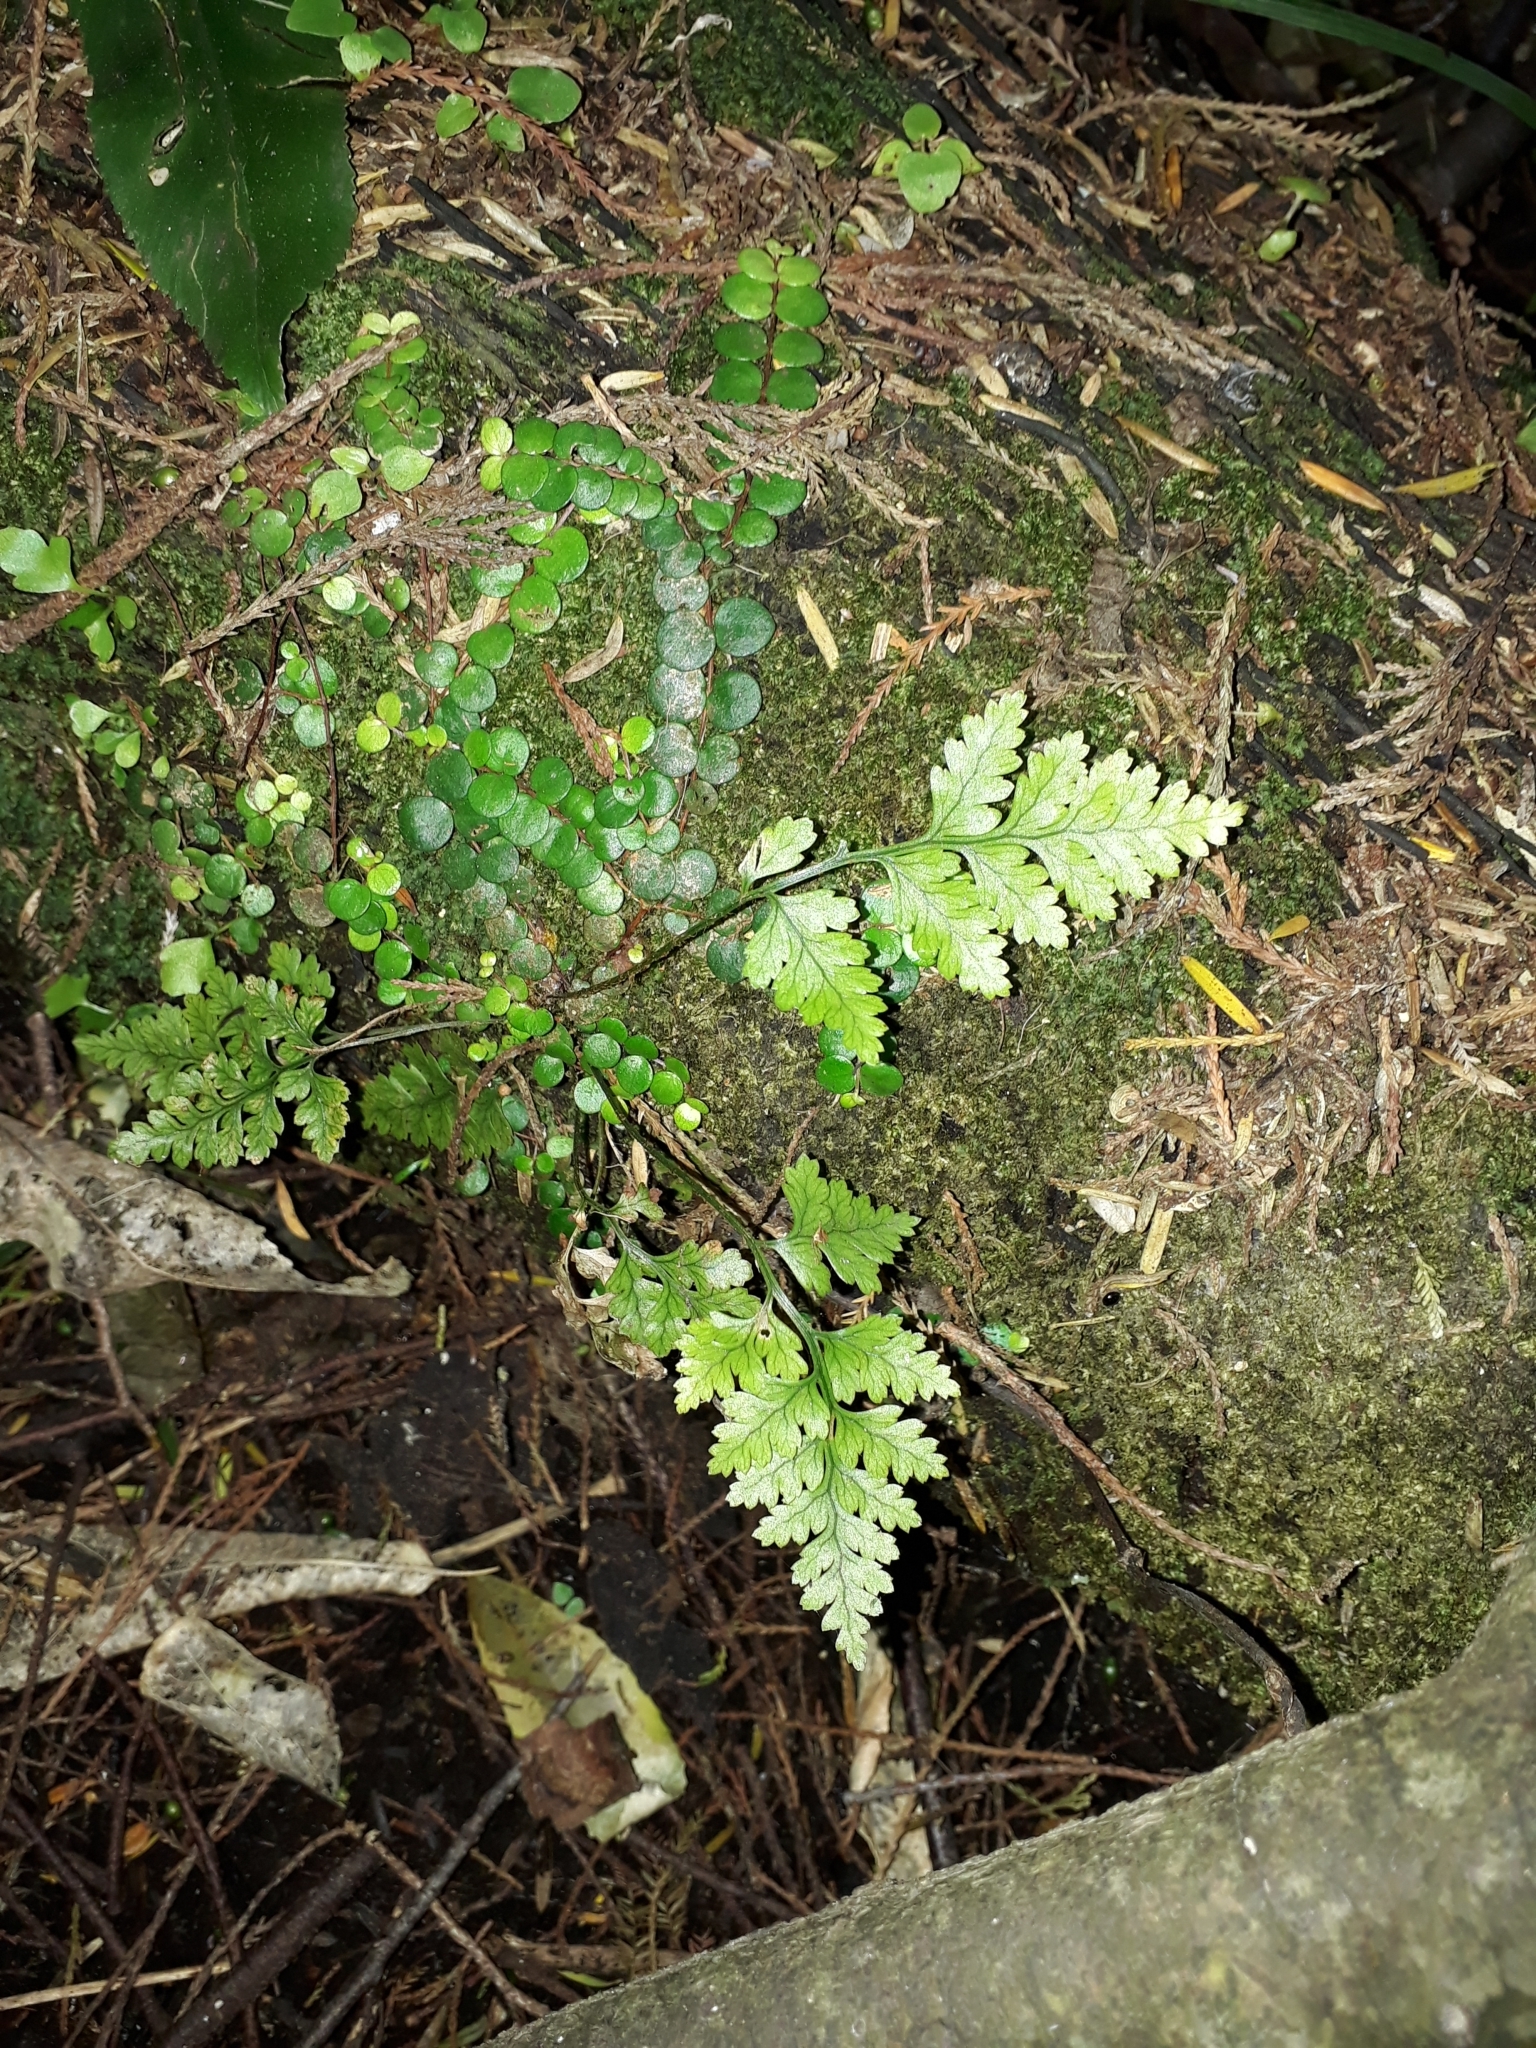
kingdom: Plantae
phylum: Tracheophyta
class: Polypodiopsida
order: Polypodiales
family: Dryopteridaceae
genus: Rumohra
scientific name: Rumohra adiantiformis
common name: Leather fern
